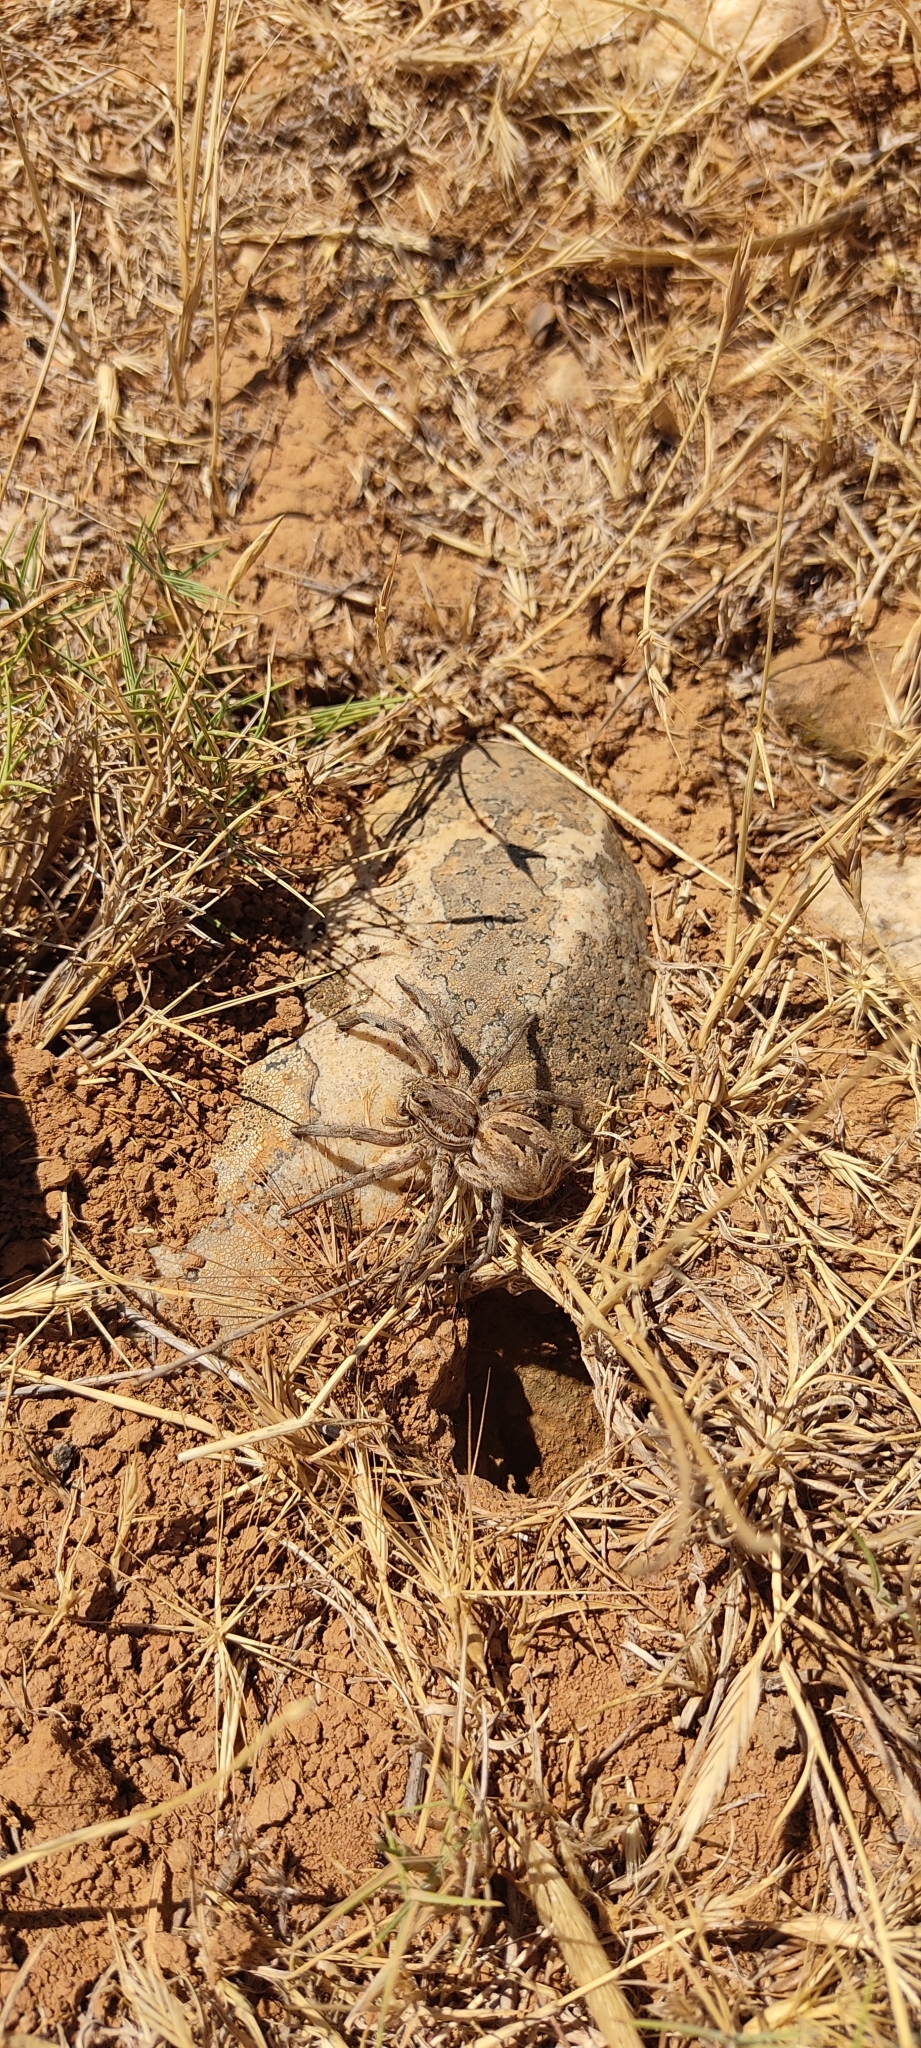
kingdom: Animalia
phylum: Arthropoda
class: Arachnida
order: Araneae
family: Lycosidae
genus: Lycosa
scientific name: Lycosa tarantula
